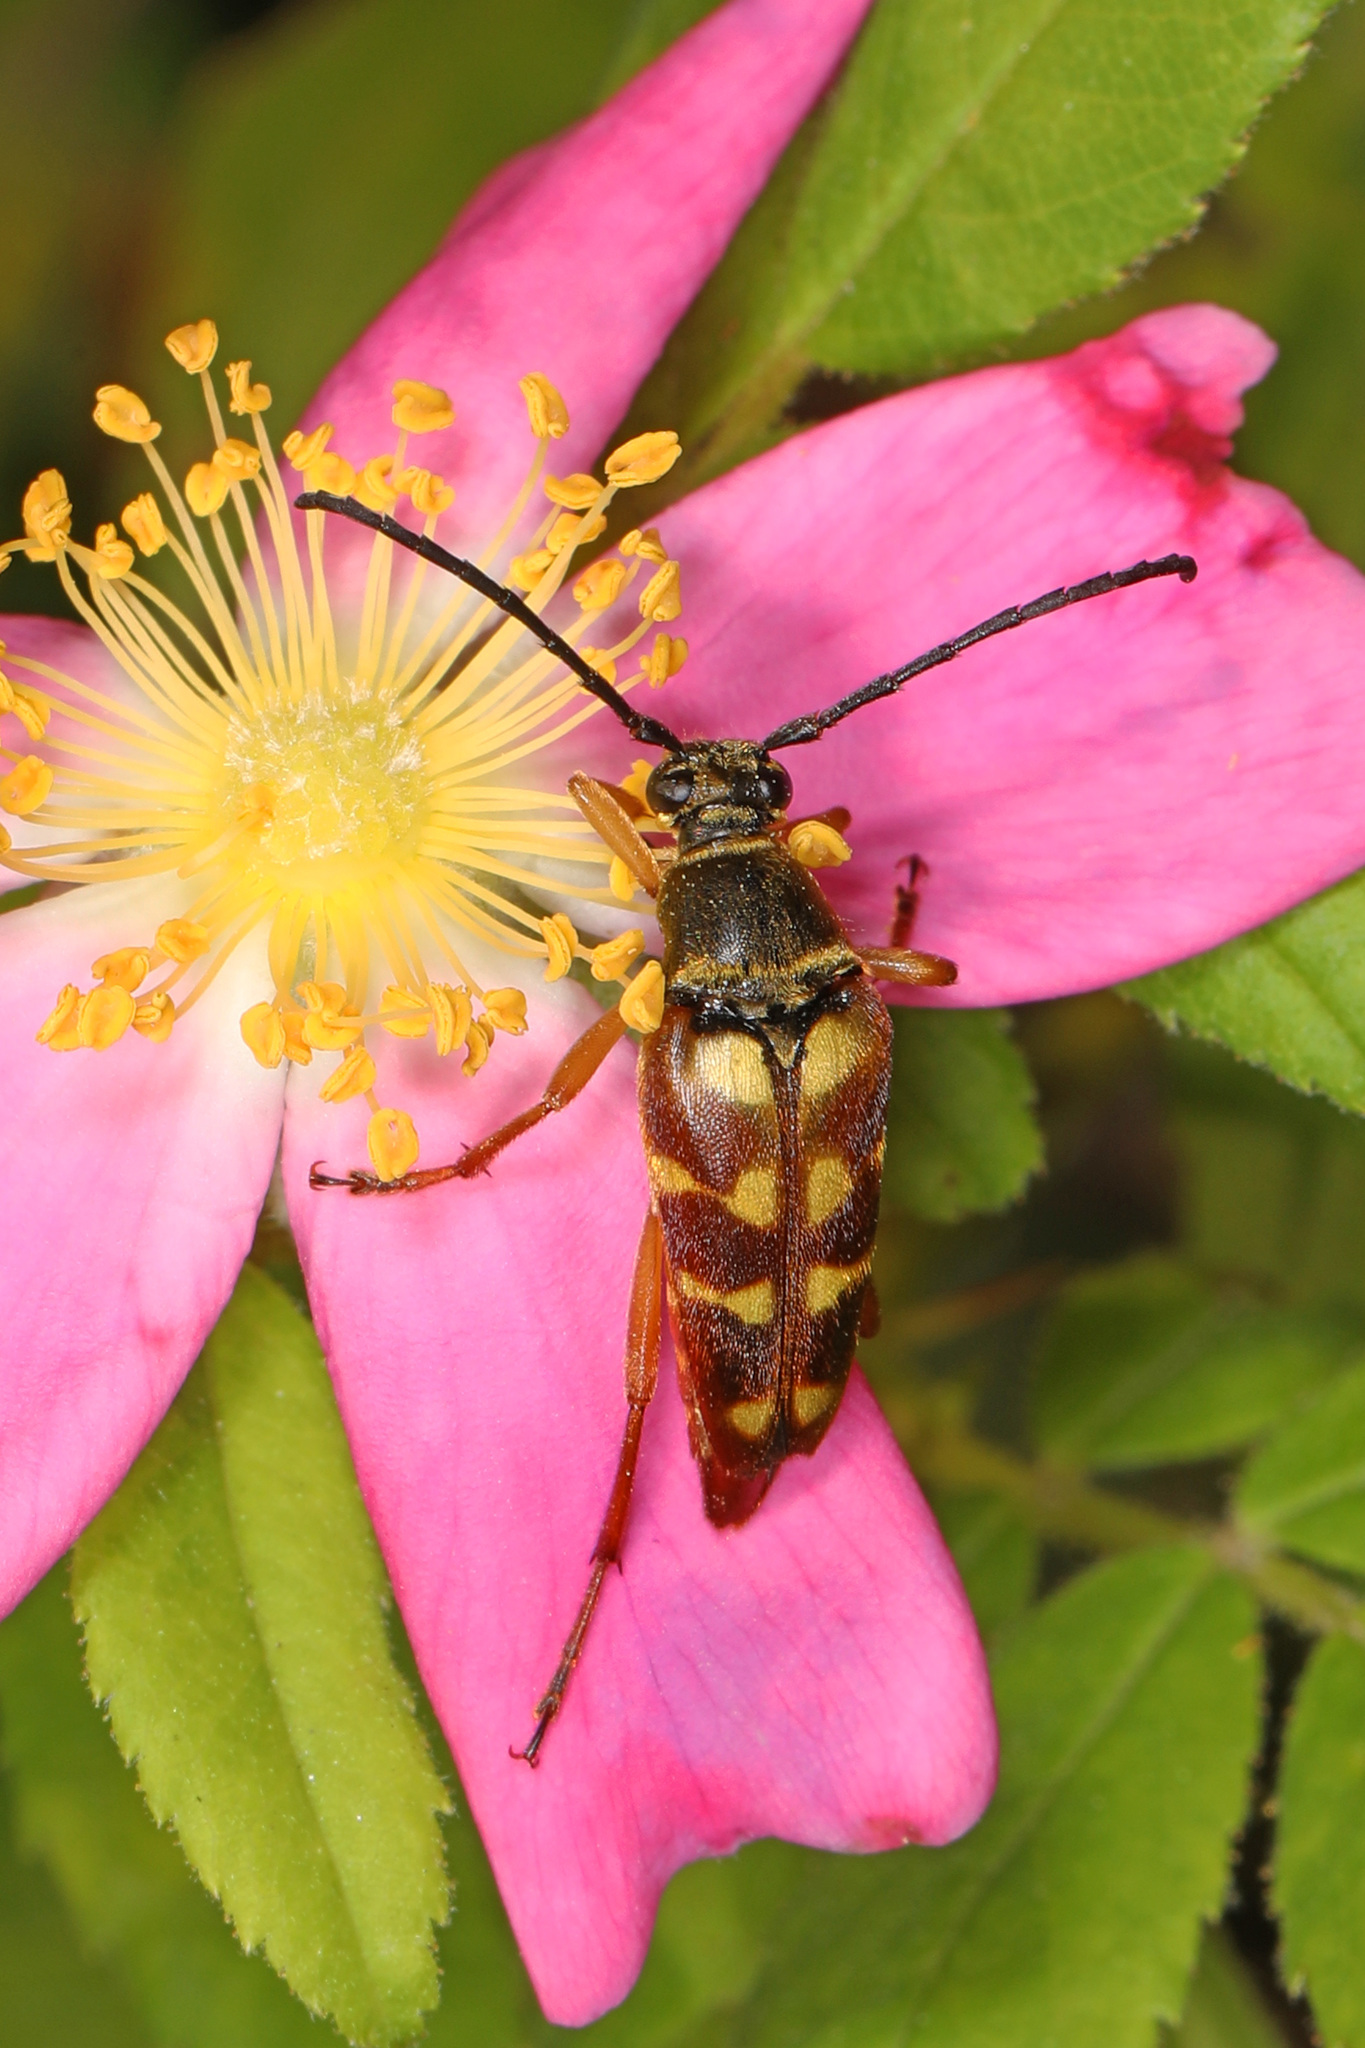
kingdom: Animalia
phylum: Arthropoda
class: Insecta
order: Coleoptera
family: Cerambycidae
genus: Typocerus
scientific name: Typocerus velutinus
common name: Banded longhorn beetle
